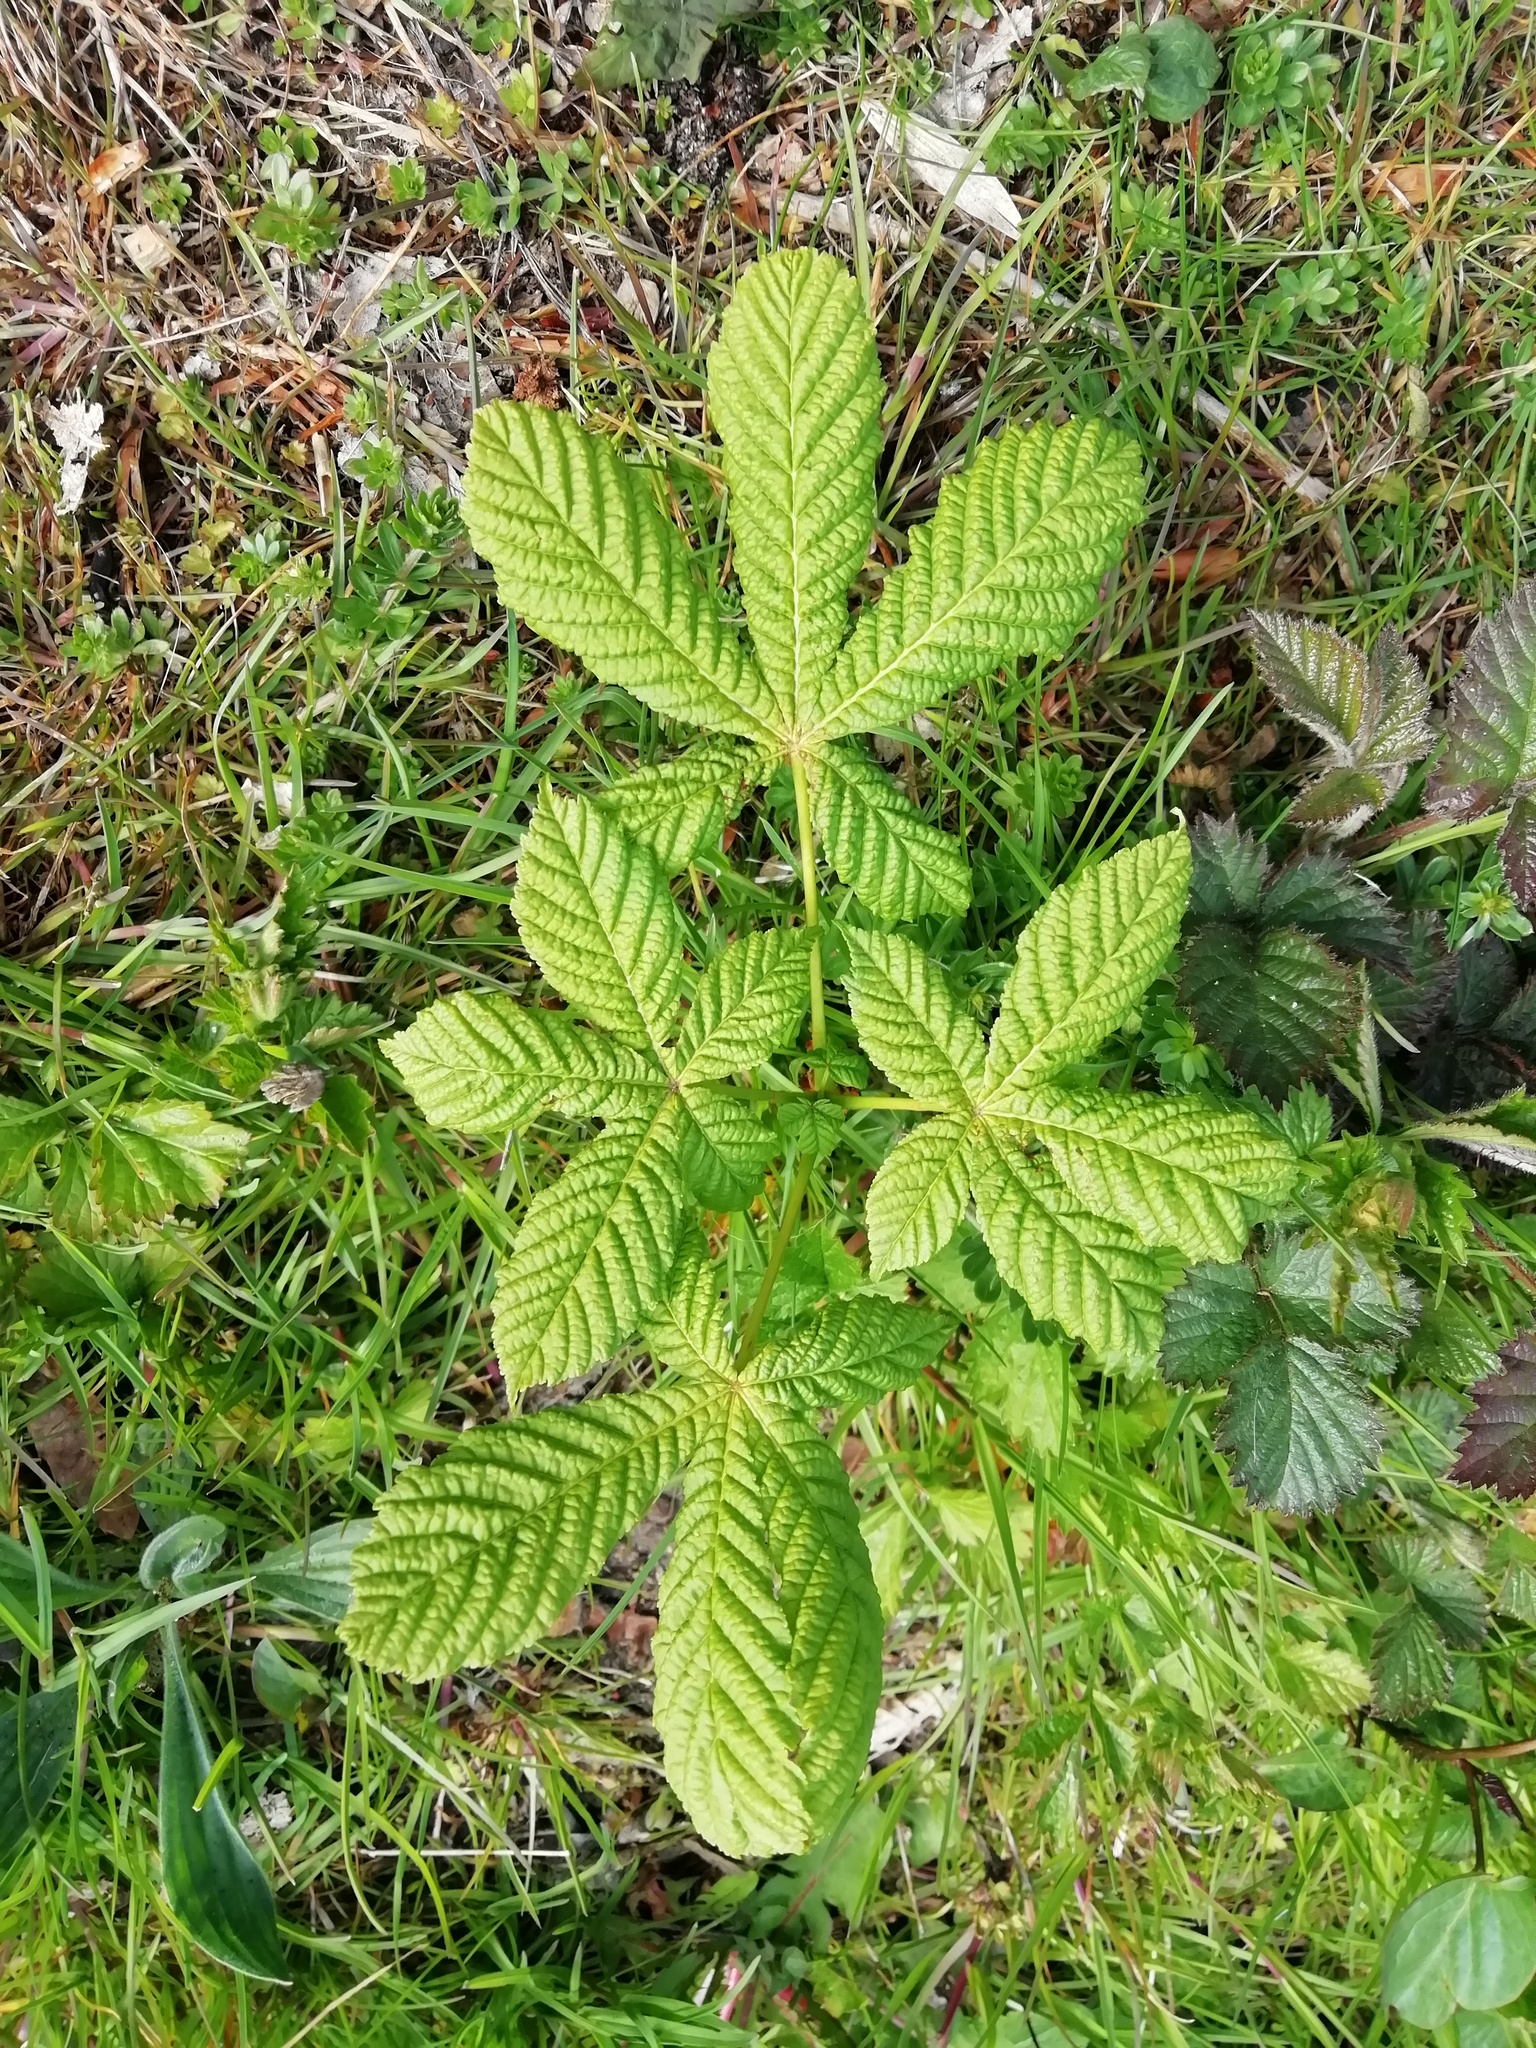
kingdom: Plantae
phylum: Tracheophyta
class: Magnoliopsida
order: Sapindales
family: Sapindaceae
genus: Aesculus
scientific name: Aesculus hippocastanum
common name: Horse-chestnut
